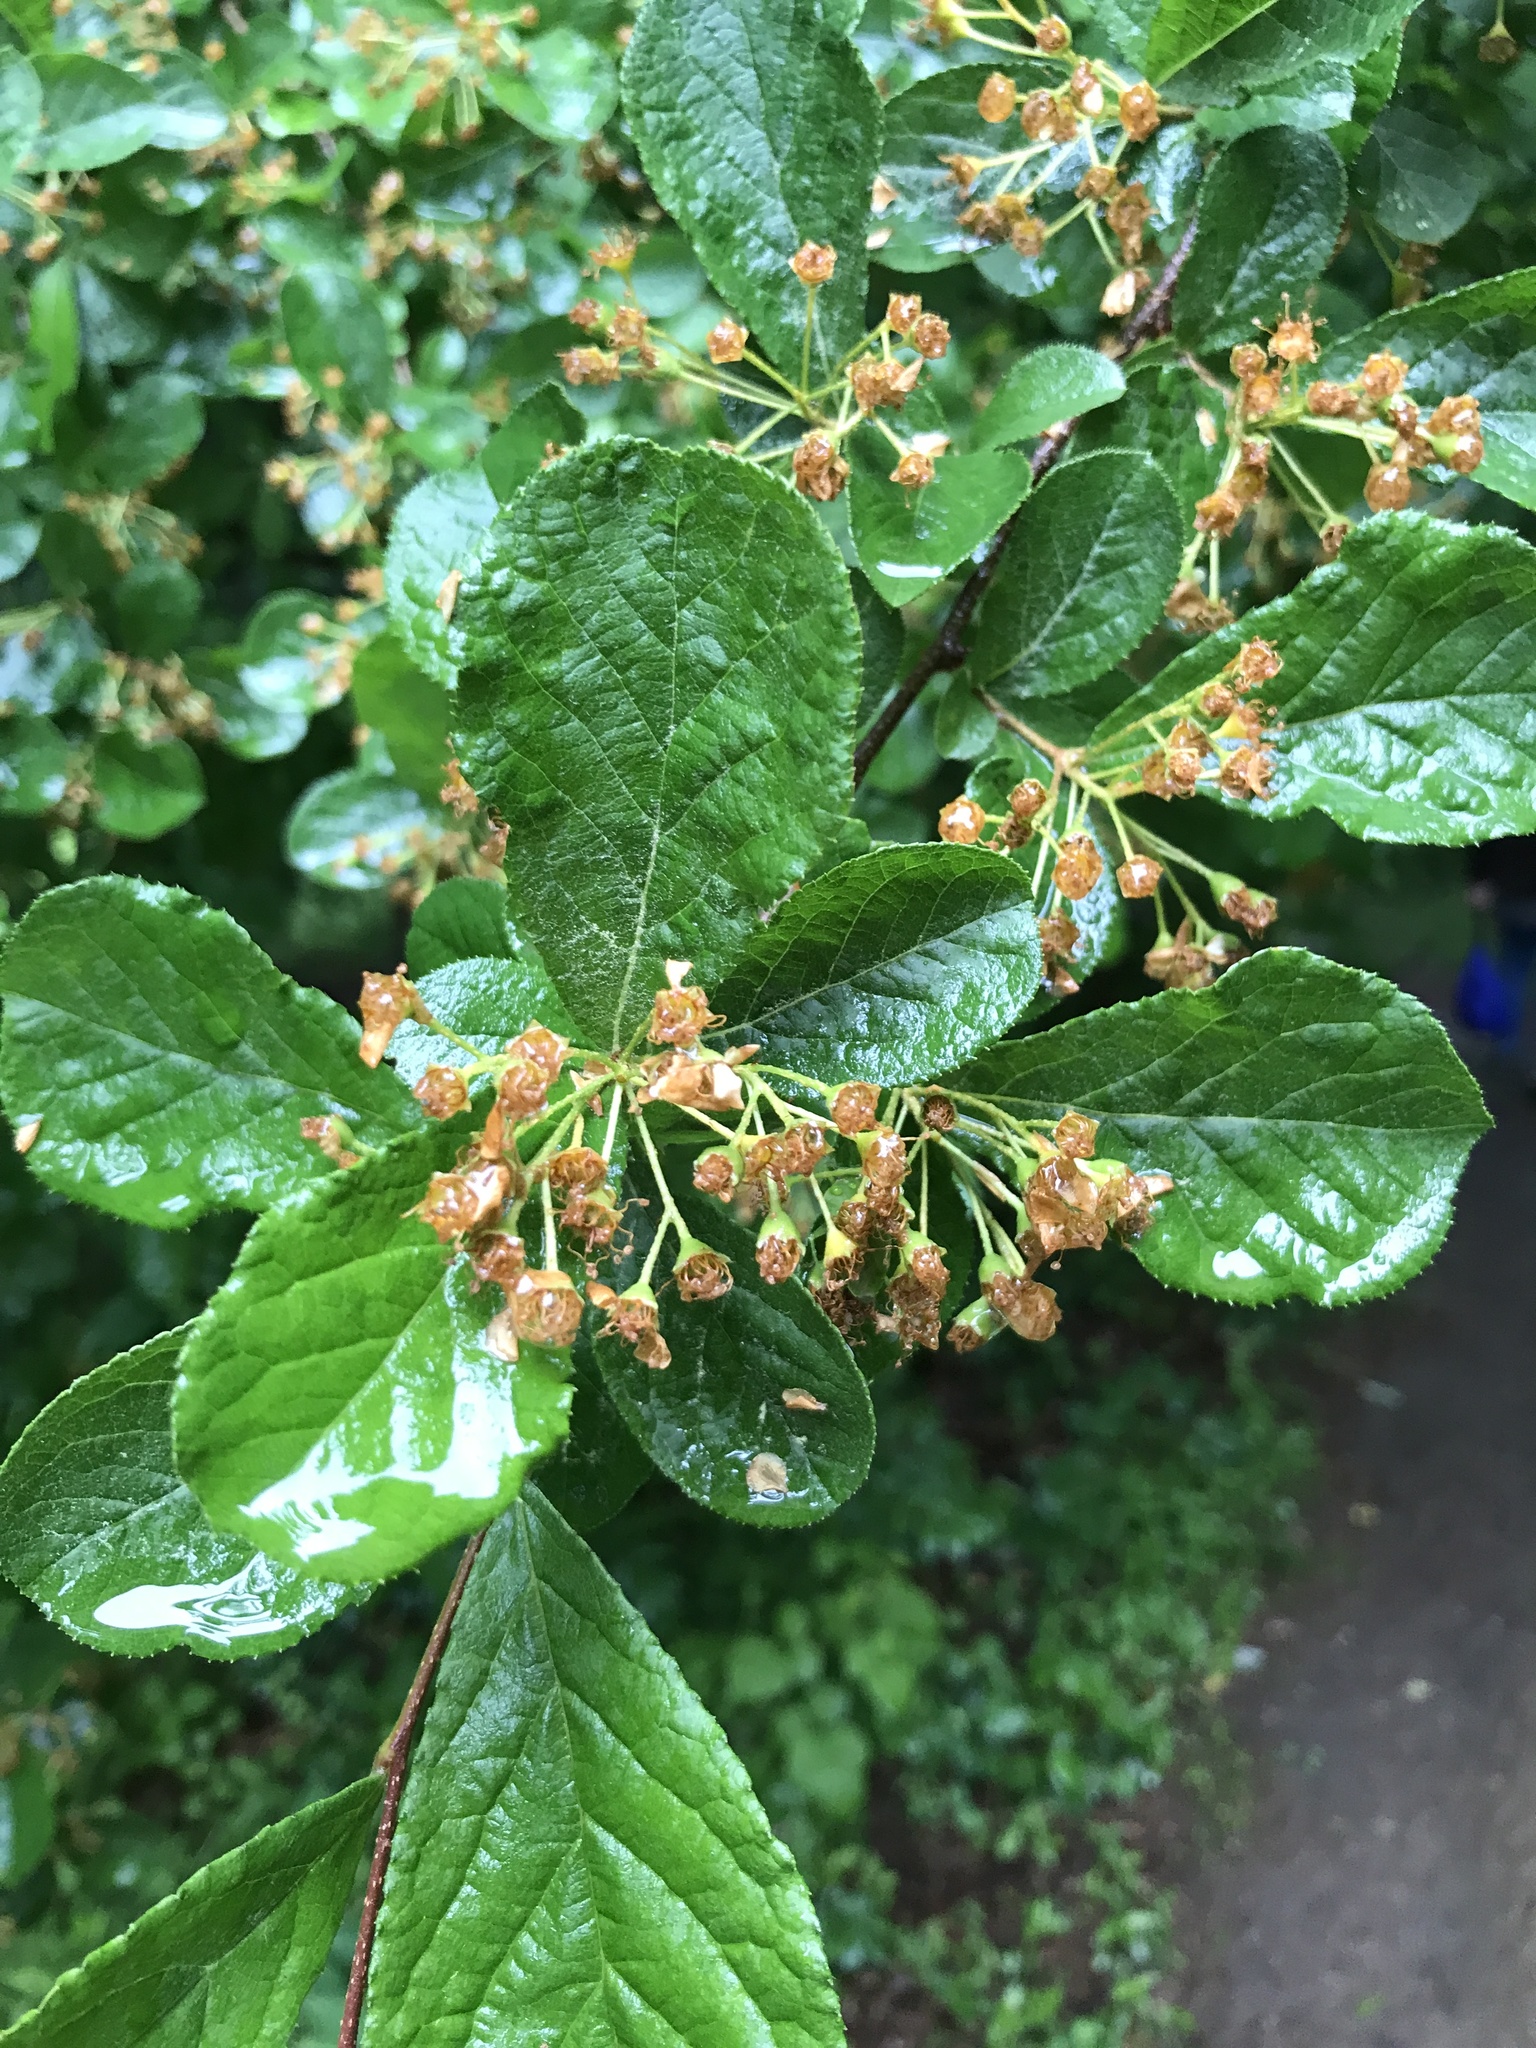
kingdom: Plantae
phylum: Tracheophyta
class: Magnoliopsida
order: Rosales
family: Rosaceae
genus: Pourthiaea
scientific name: Pourthiaea villosa
